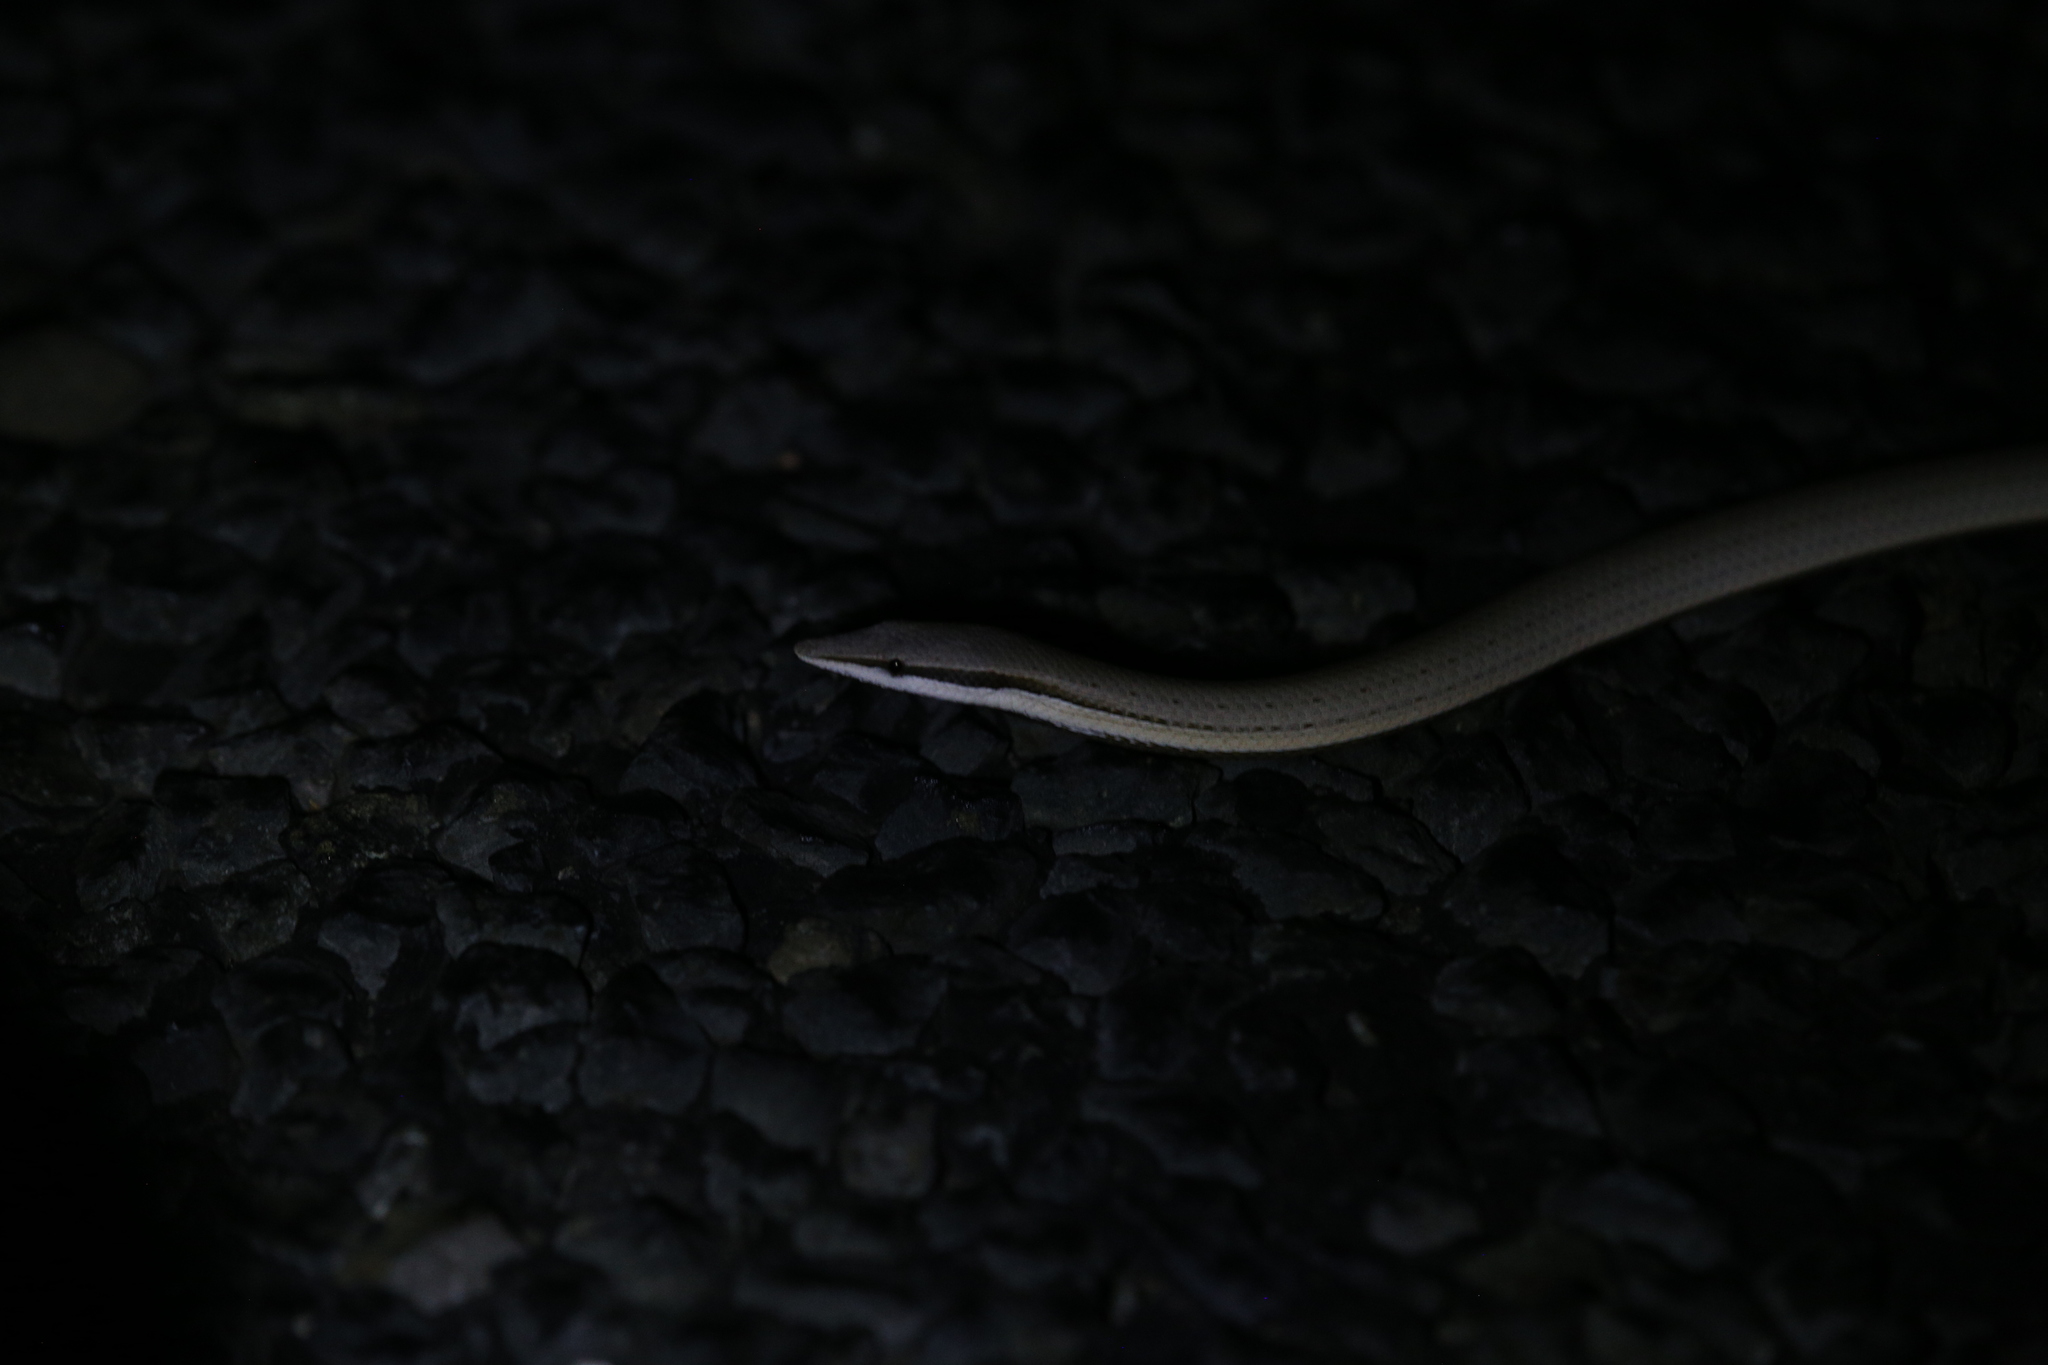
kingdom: Animalia
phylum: Chordata
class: Squamata
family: Pygopodidae
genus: Lialis
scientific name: Lialis burtonis
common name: Burton's legless lizard
